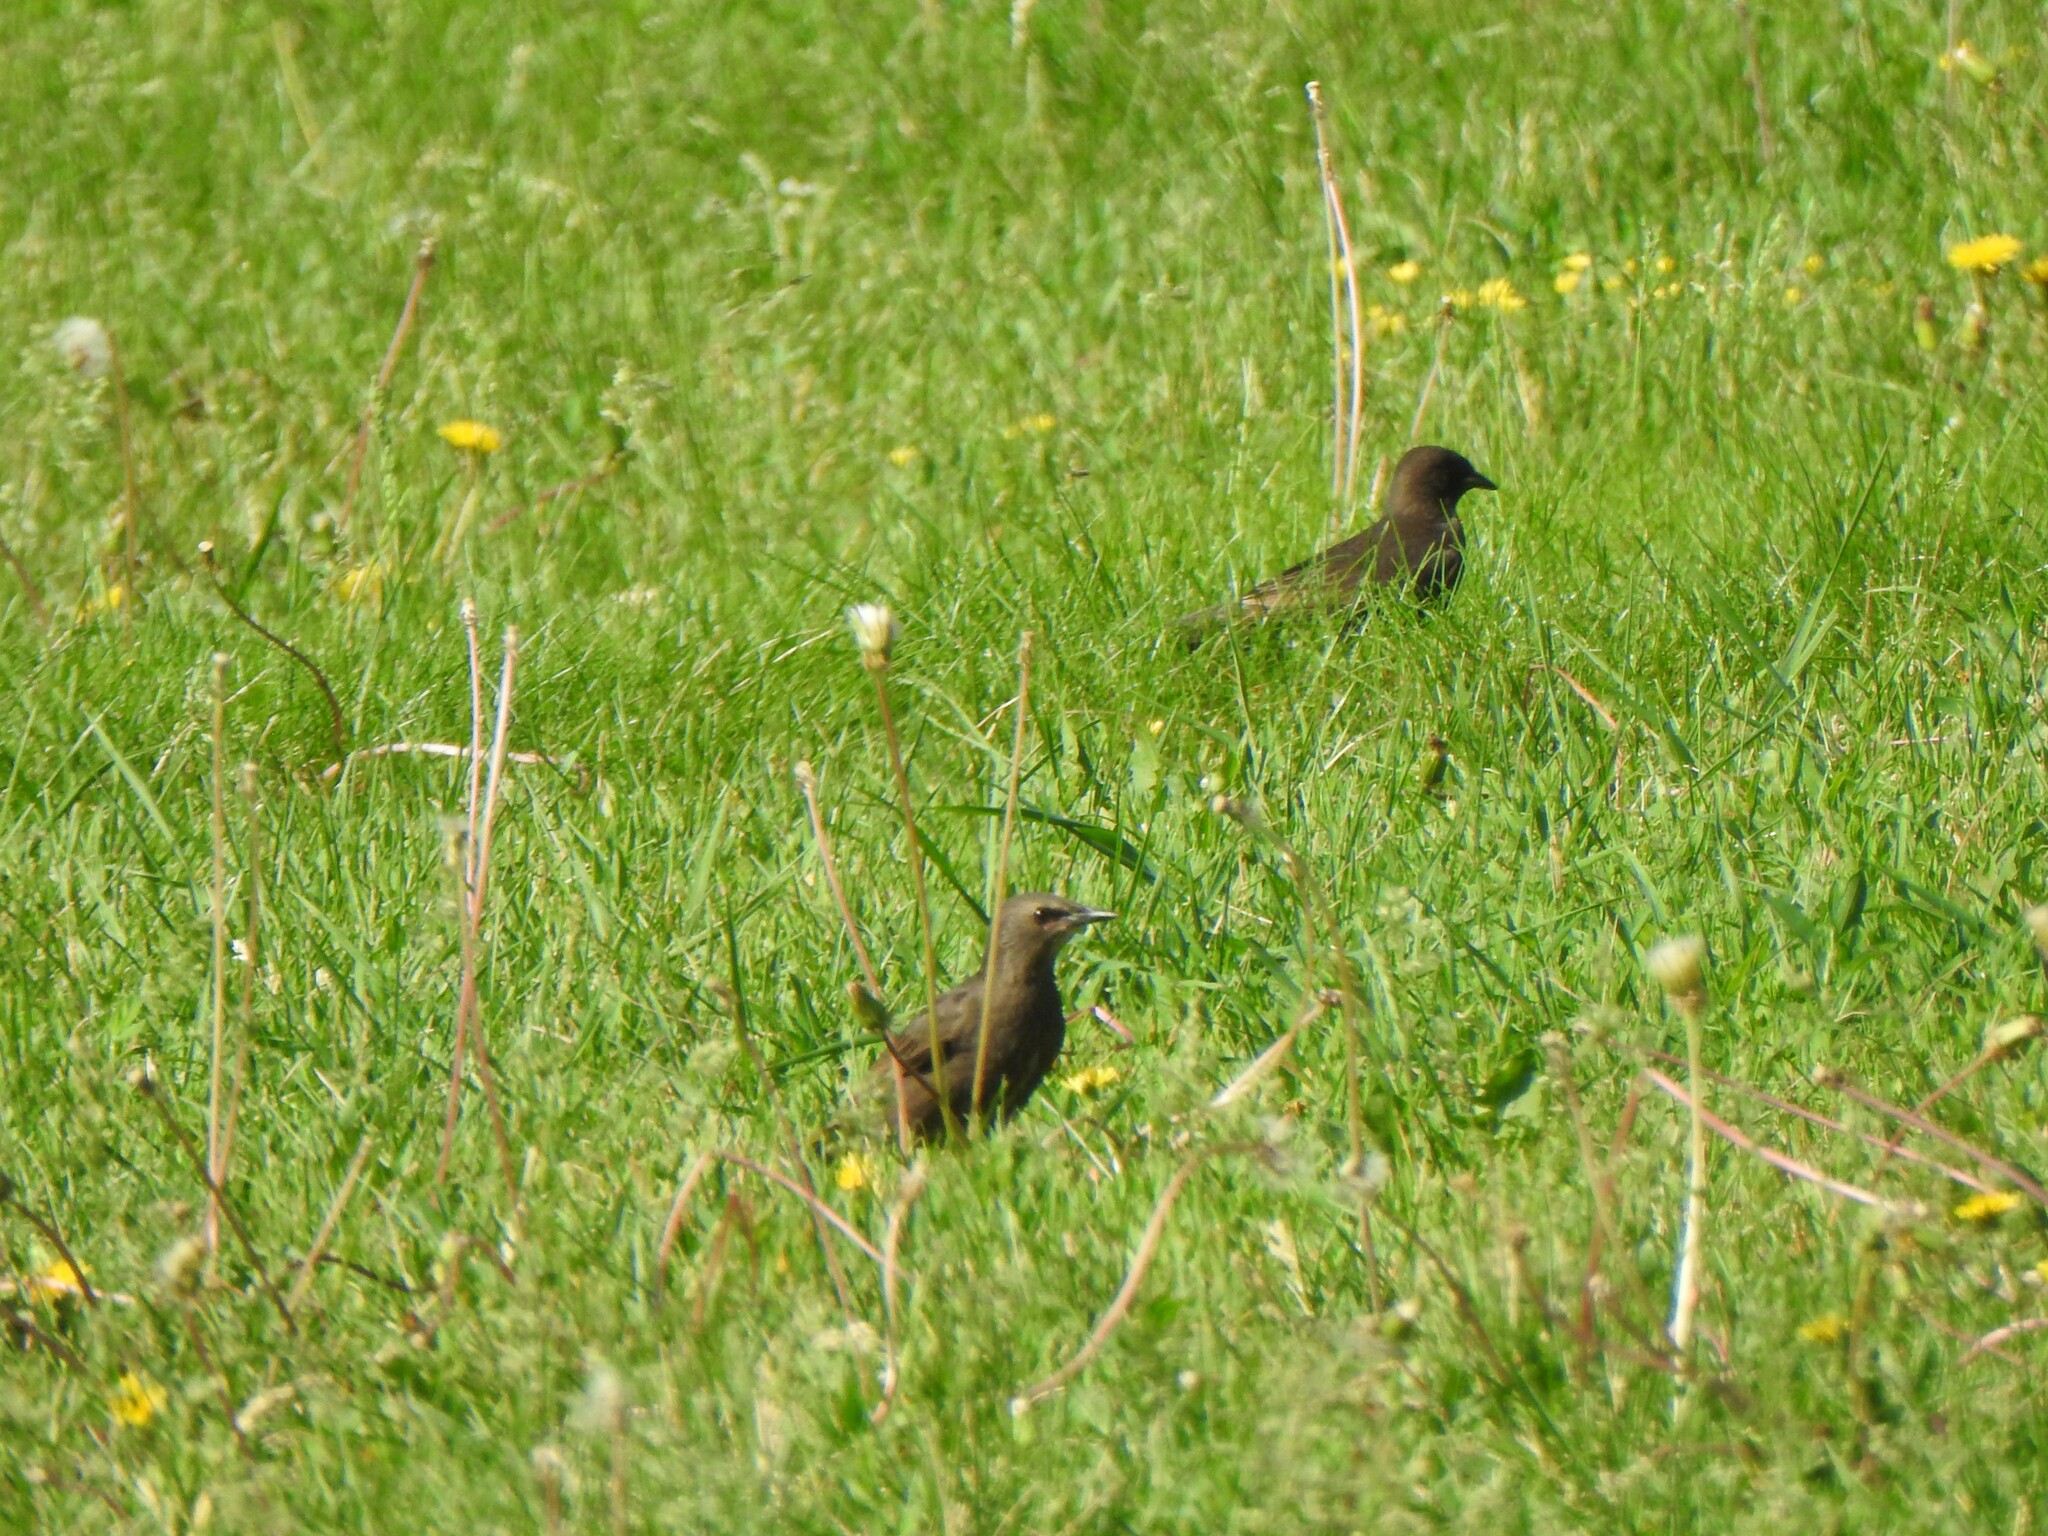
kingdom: Animalia
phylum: Chordata
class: Aves
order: Passeriformes
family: Sturnidae
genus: Sturnus
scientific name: Sturnus vulgaris
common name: Common starling
